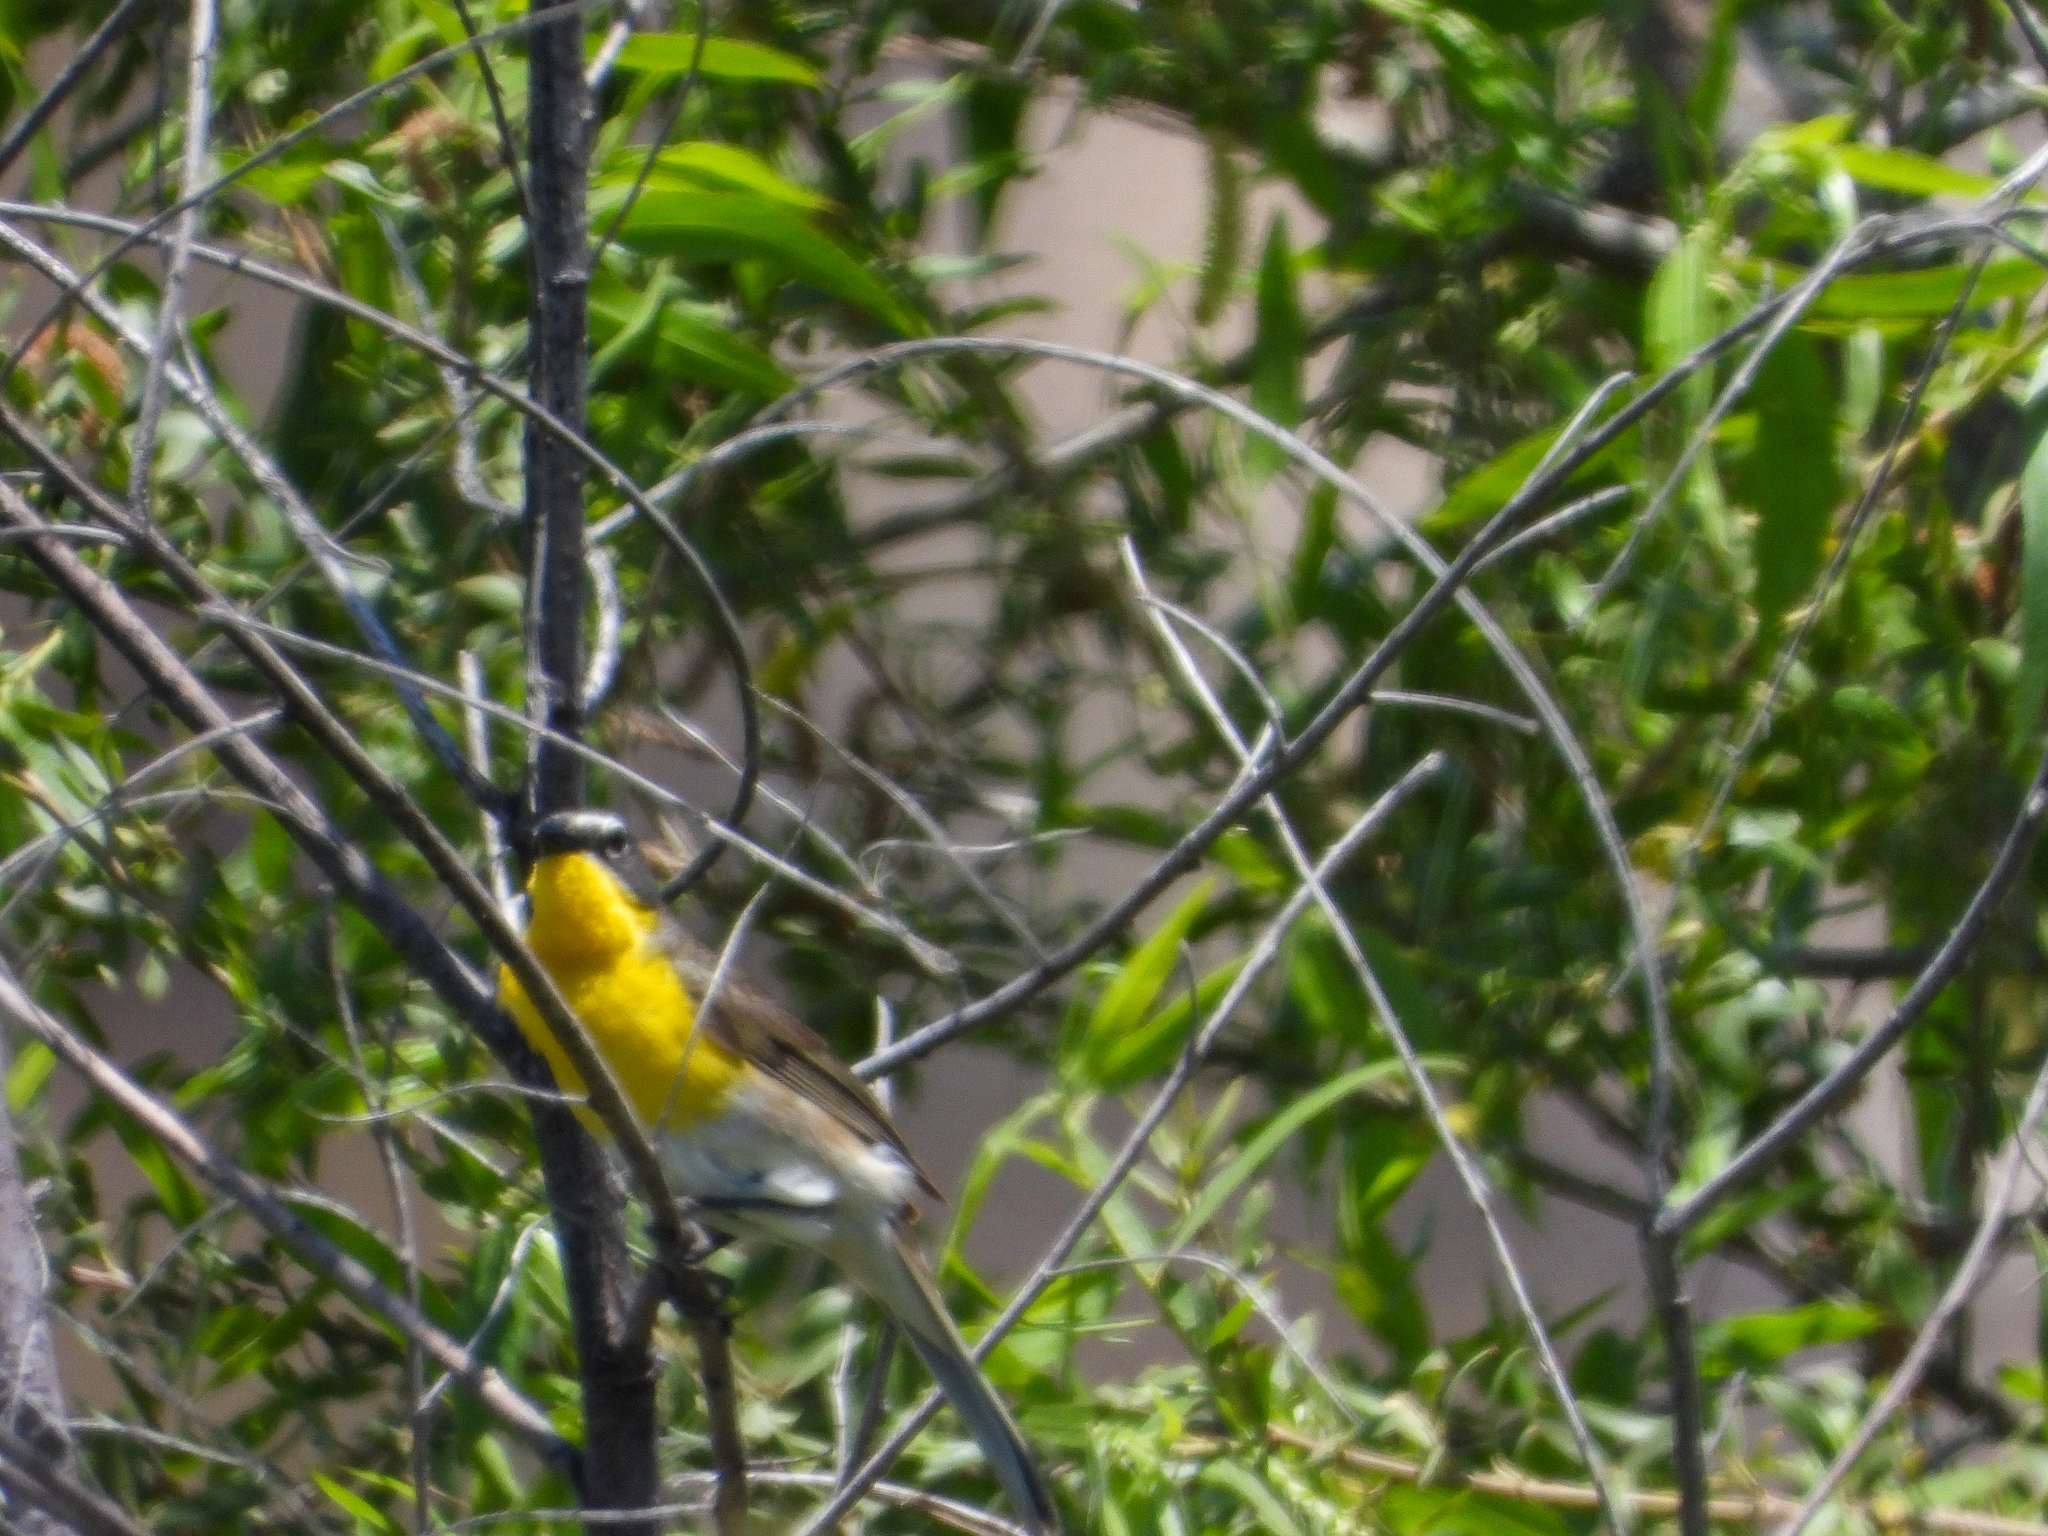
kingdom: Animalia
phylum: Chordata
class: Aves
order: Passeriformes
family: Parulidae
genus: Icteria
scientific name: Icteria virens
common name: Yellow-breasted chat
